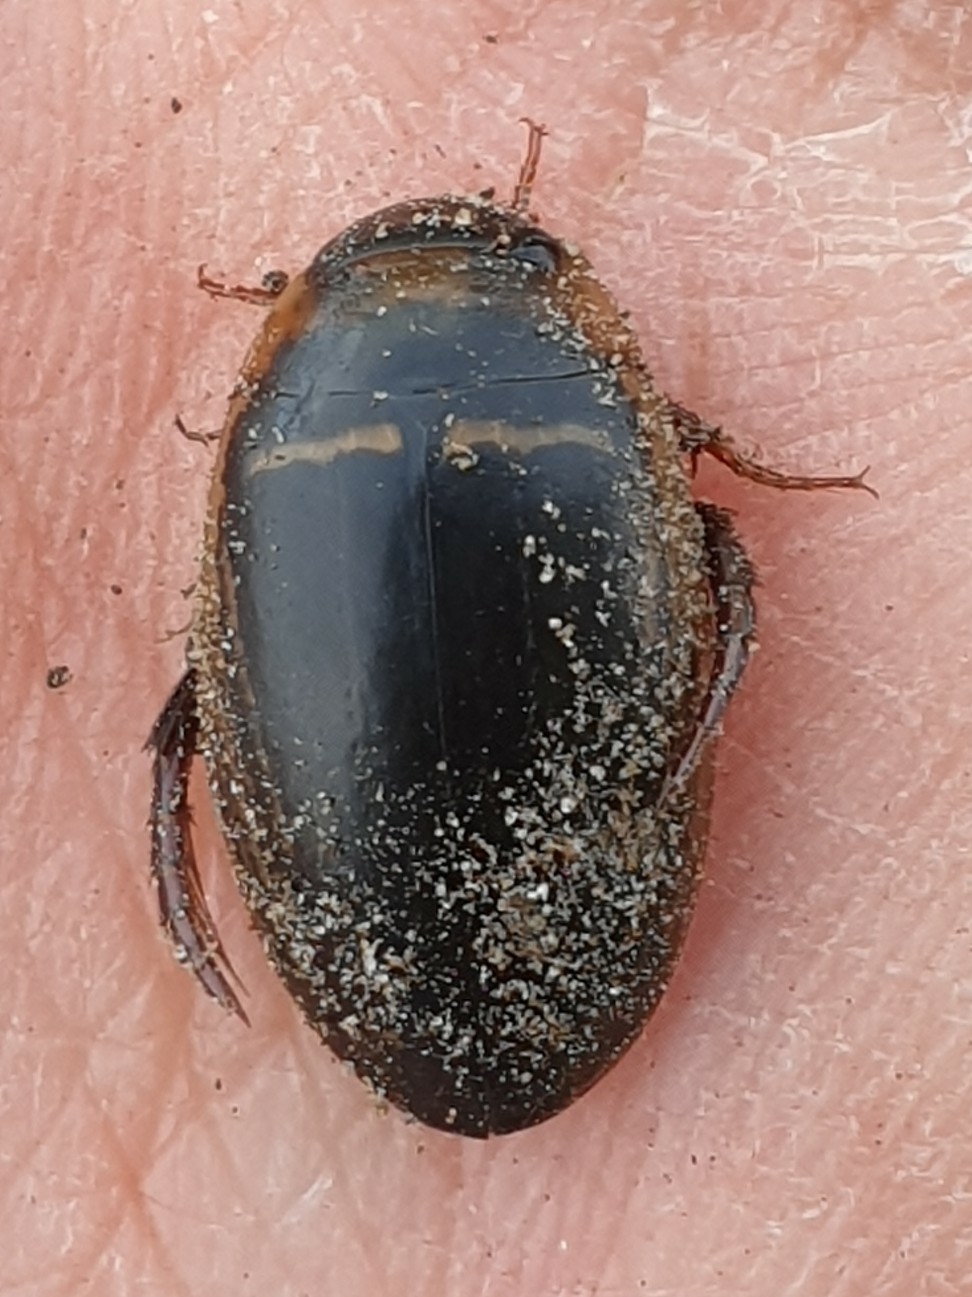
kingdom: Animalia
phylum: Arthropoda
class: Insecta
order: Coleoptera
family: Dytiscidae
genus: Hydaticus
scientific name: Hydaticus transversalis
